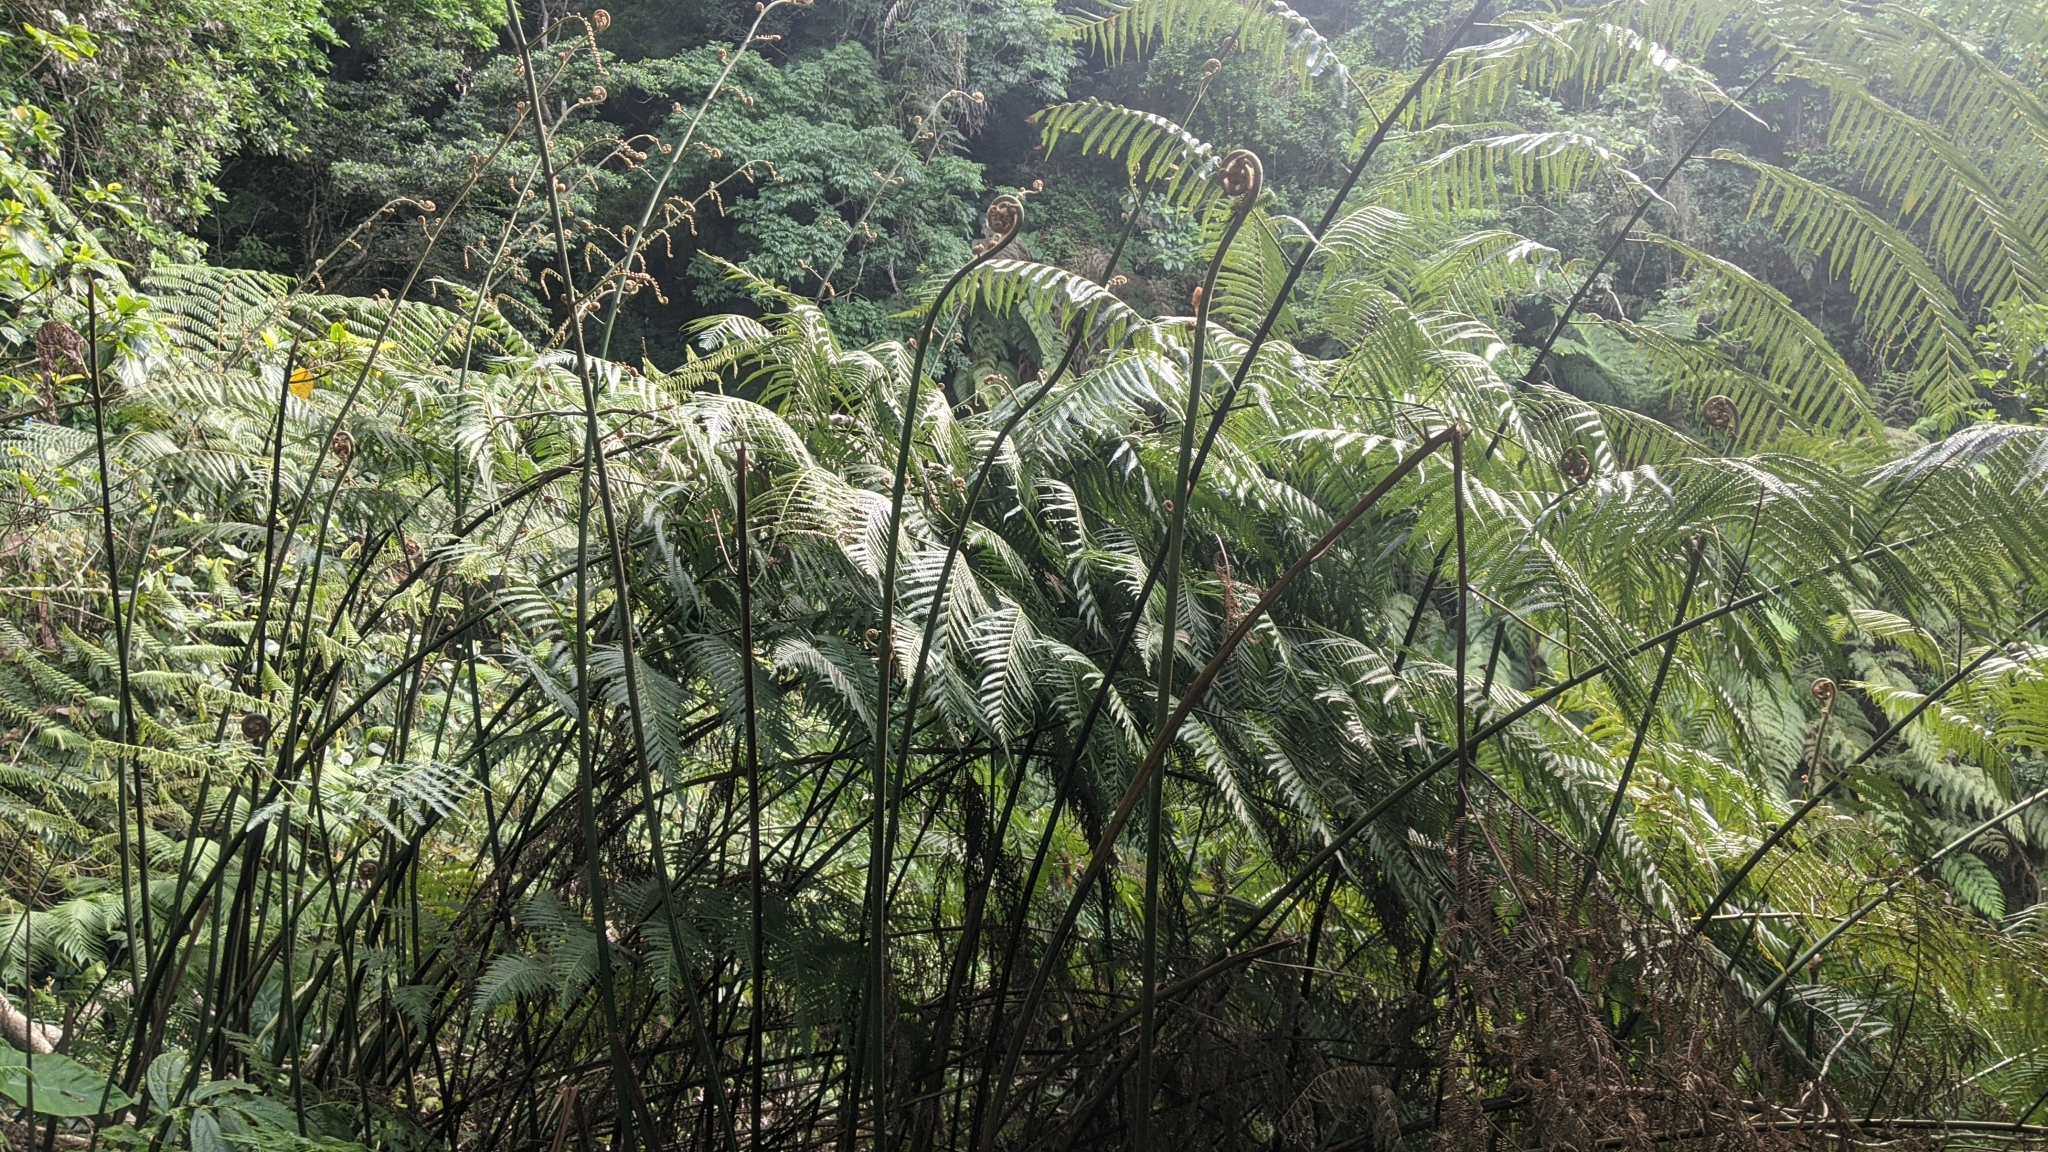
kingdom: Plantae
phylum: Tracheophyta
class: Polypodiopsida
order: Cyatheales
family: Cibotiaceae
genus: Cibotium
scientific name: Cibotium taiwanense
